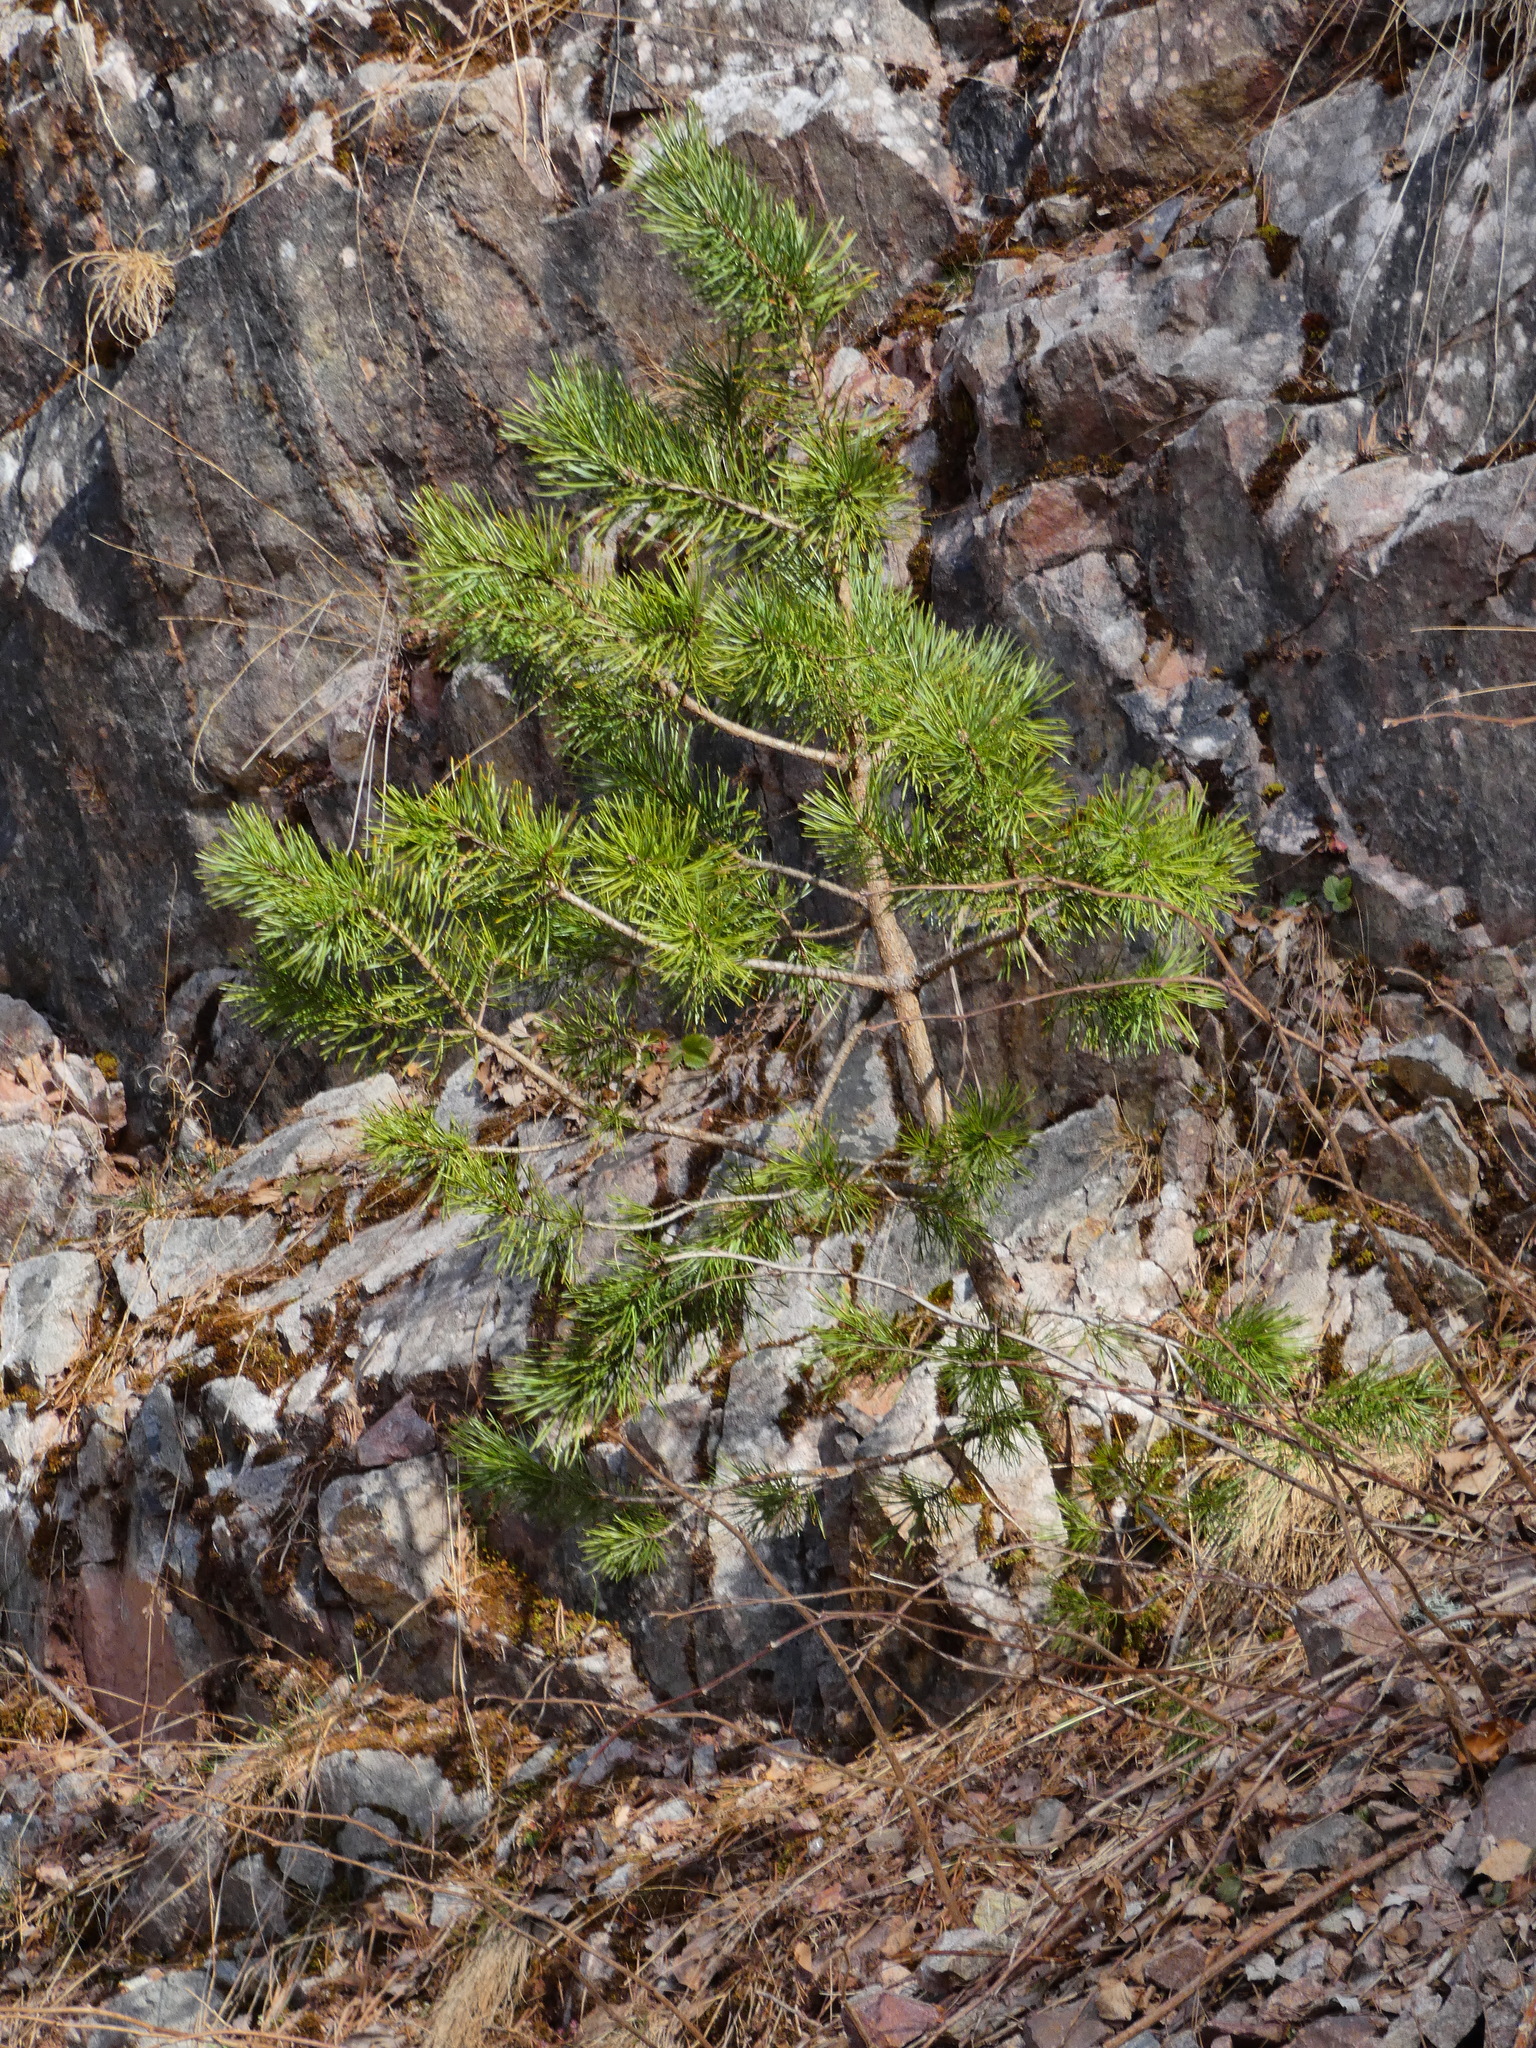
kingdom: Plantae
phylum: Tracheophyta
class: Pinopsida
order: Pinales
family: Pinaceae
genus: Pinus
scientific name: Pinus sylvestris
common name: Scots pine
